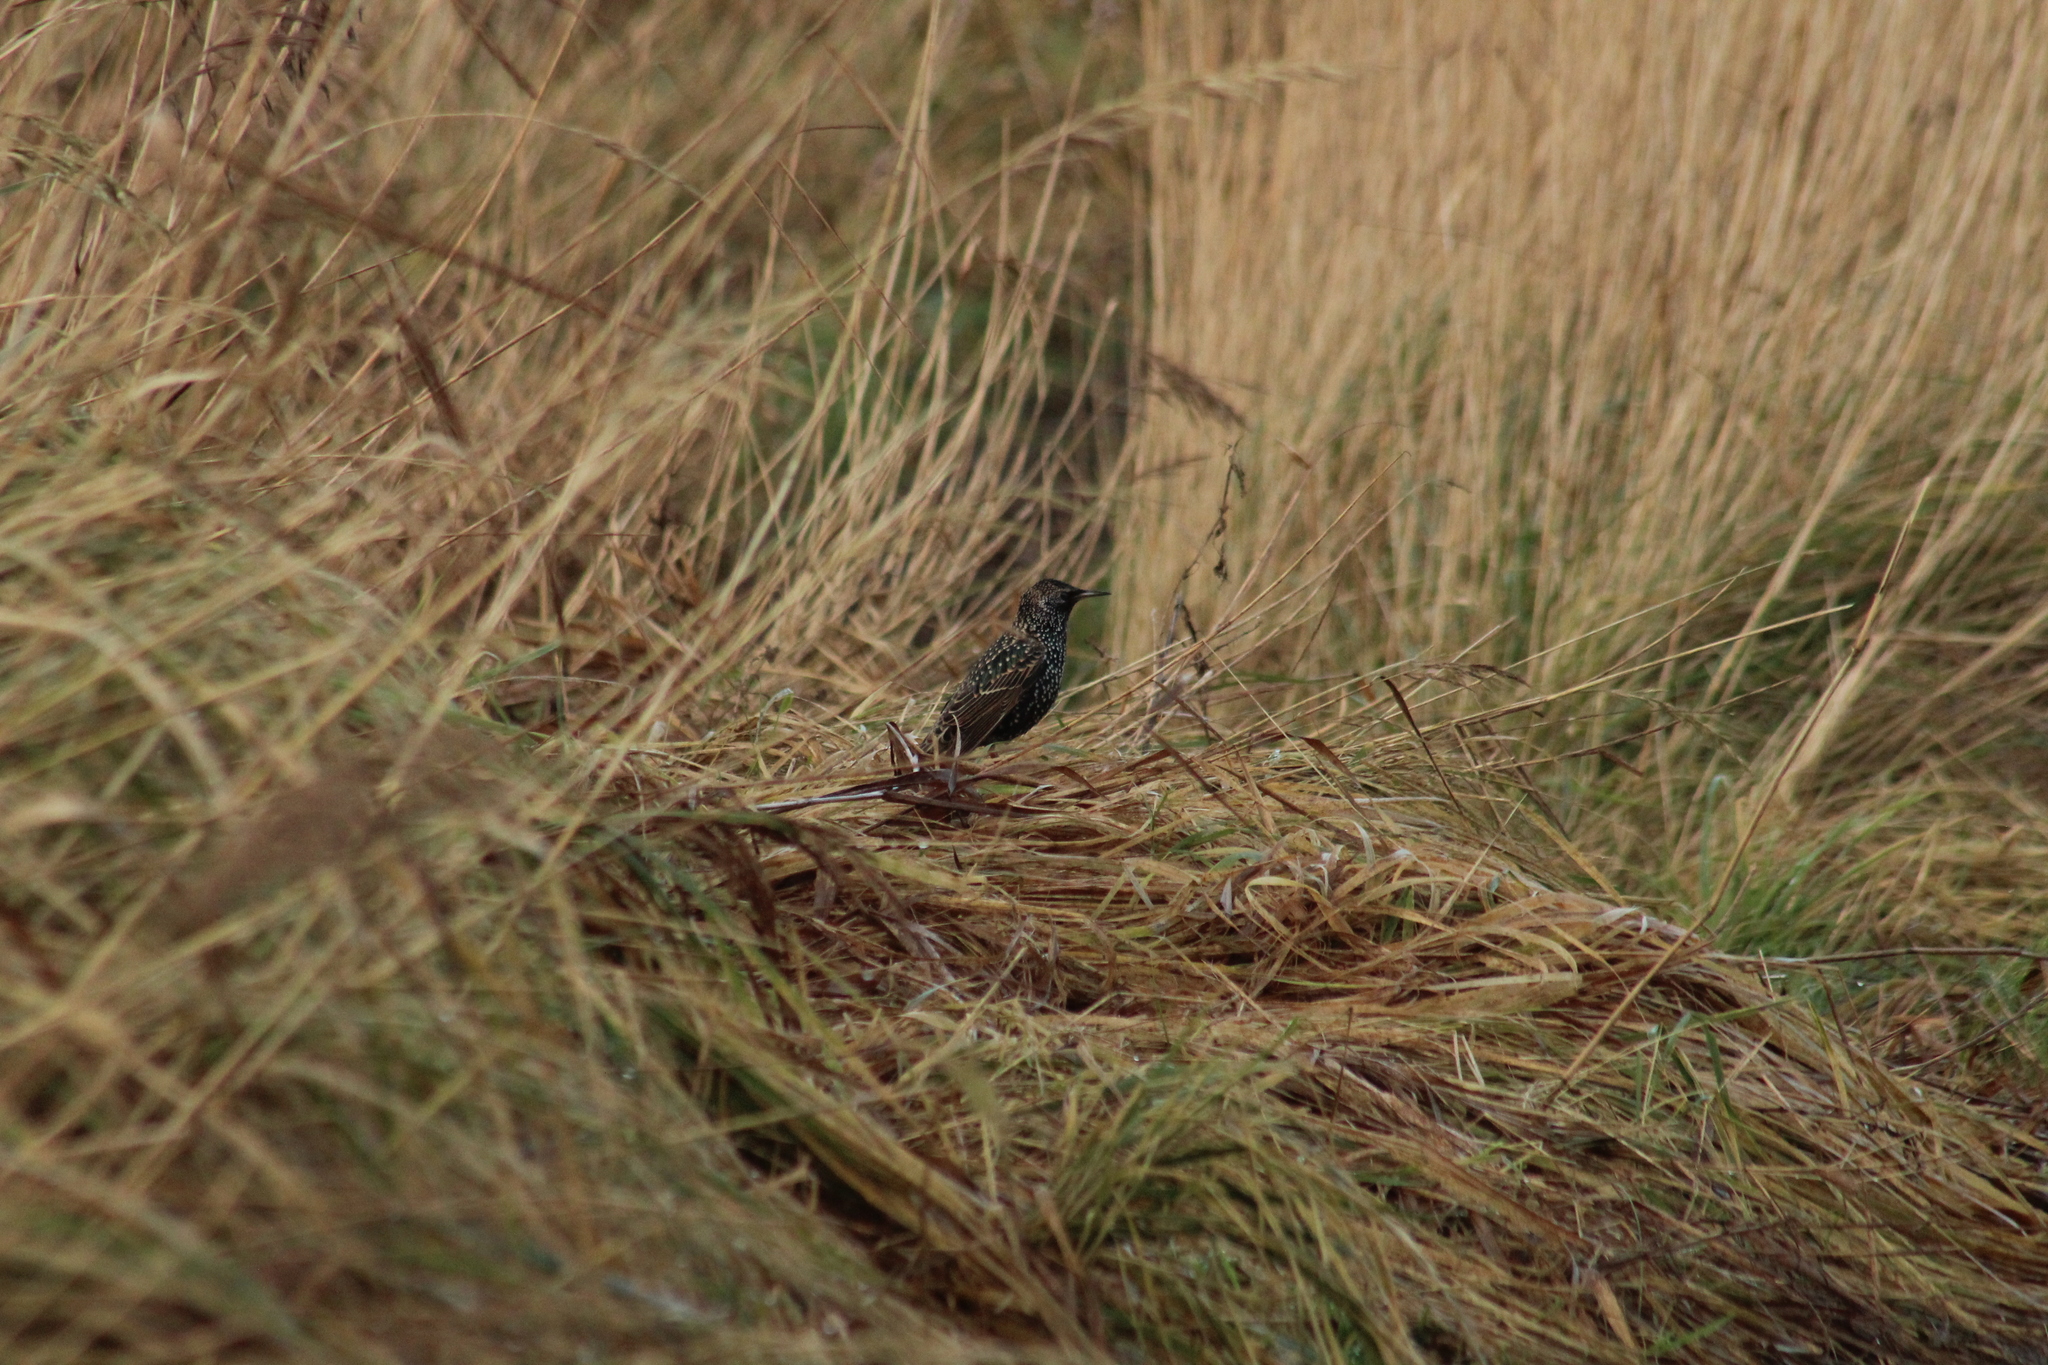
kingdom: Animalia
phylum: Chordata
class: Aves
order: Passeriformes
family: Sturnidae
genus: Sturnus
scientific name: Sturnus vulgaris
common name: Common starling
